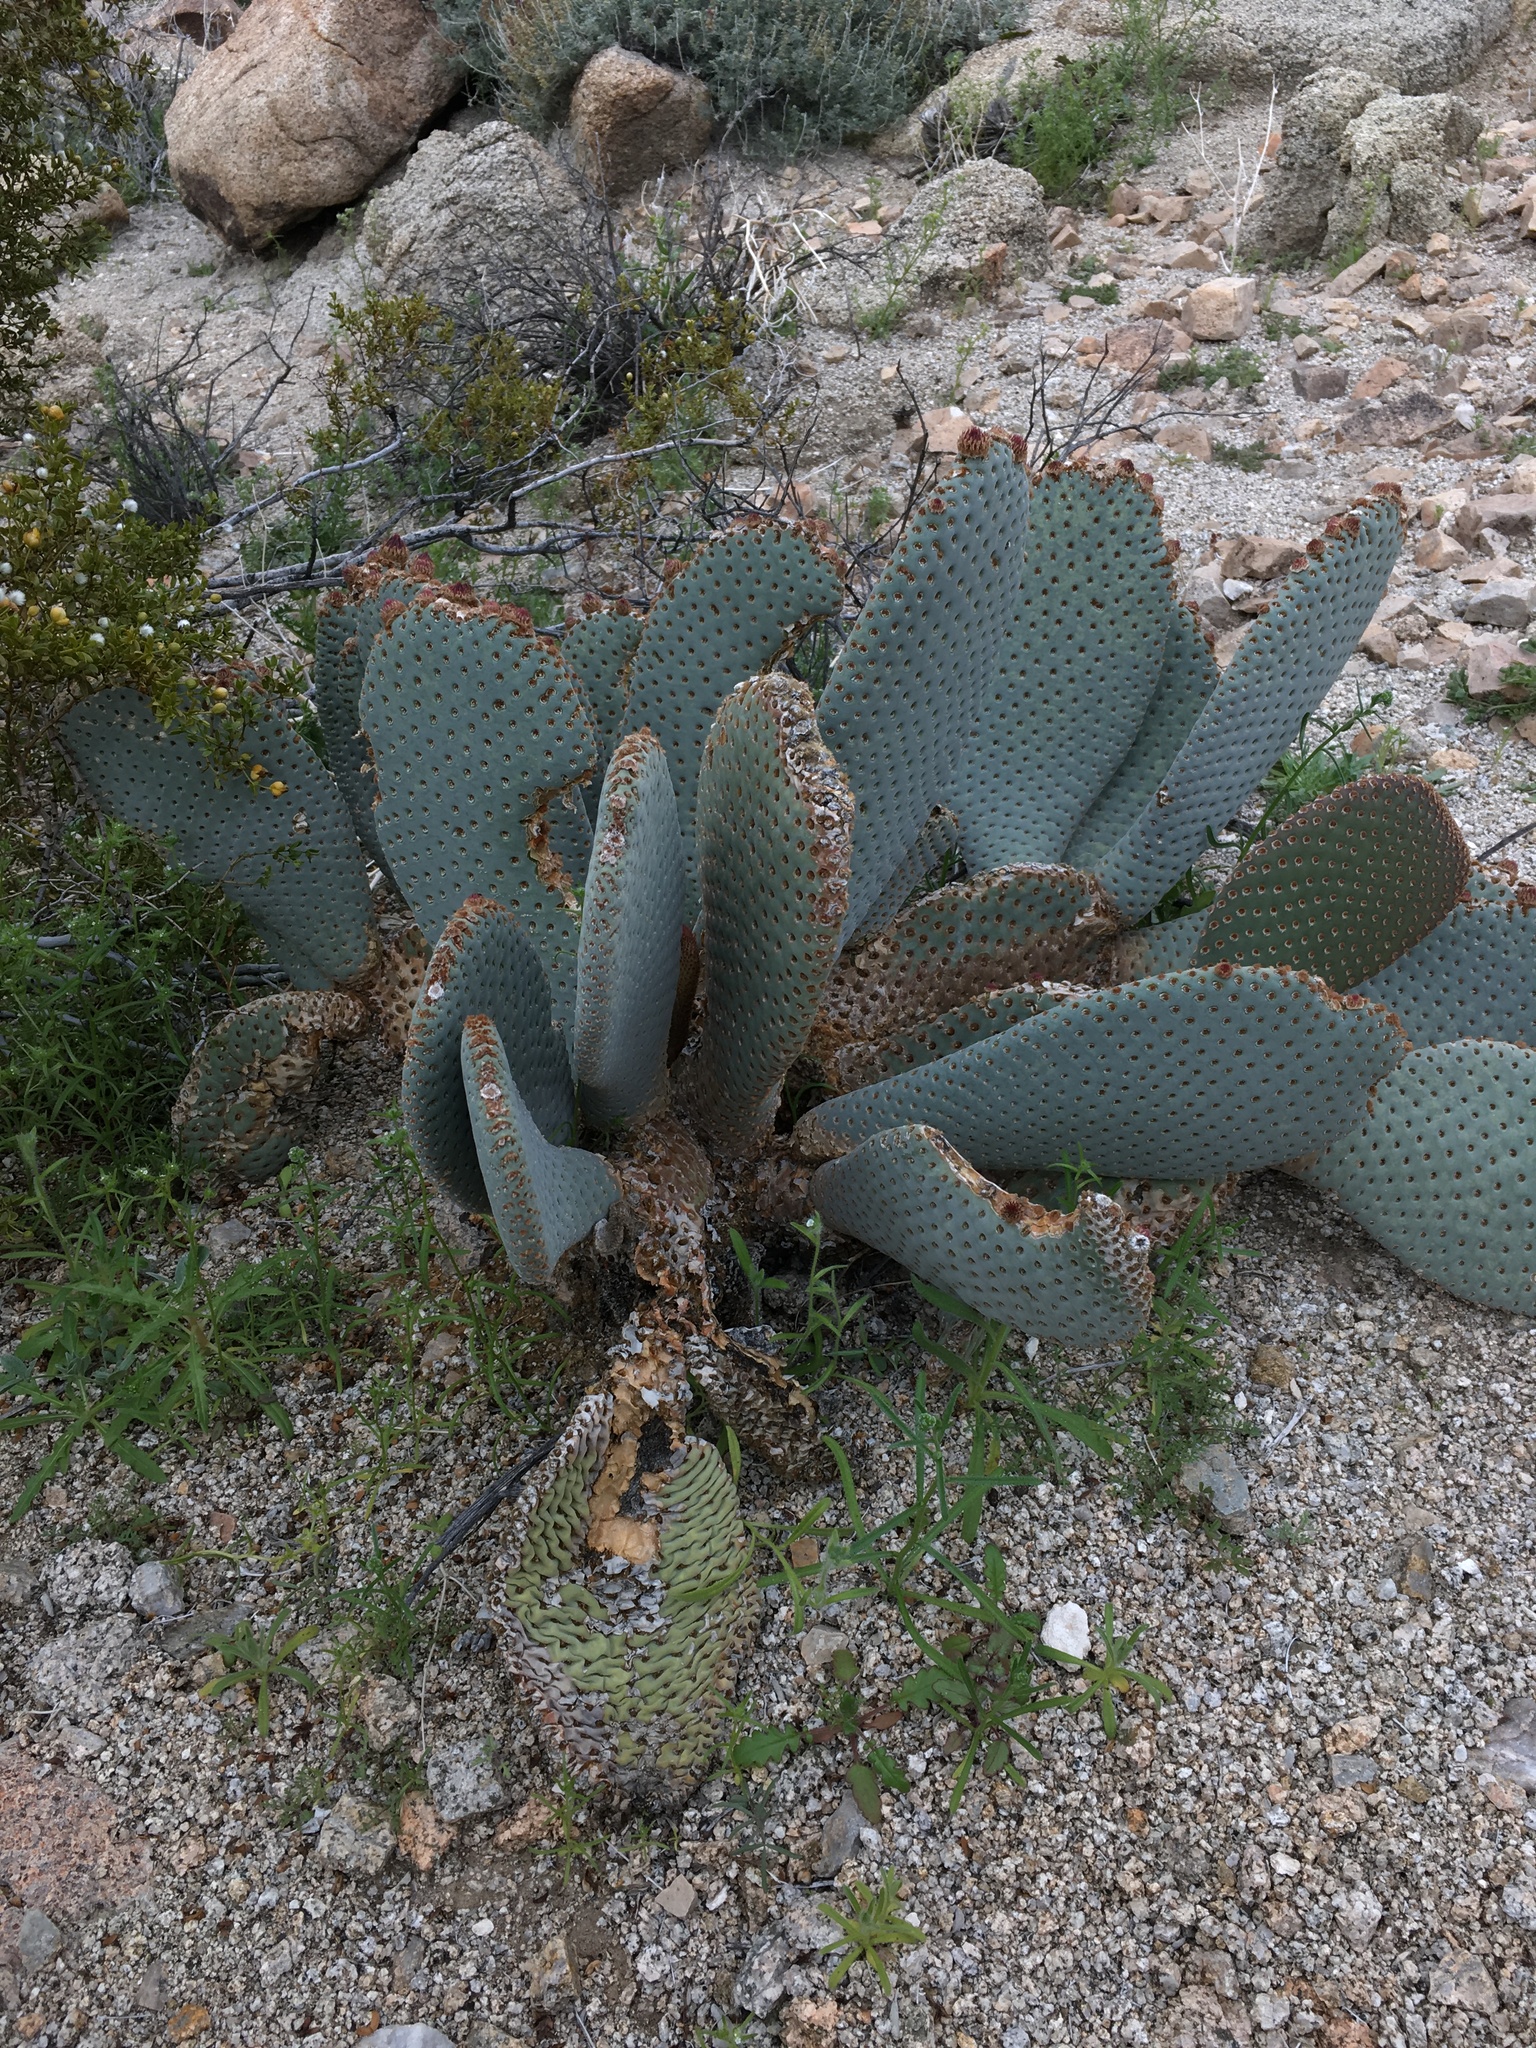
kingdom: Plantae
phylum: Tracheophyta
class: Magnoliopsida
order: Caryophyllales
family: Cactaceae
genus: Opuntia
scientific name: Opuntia basilaris
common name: Beavertail prickly-pear
